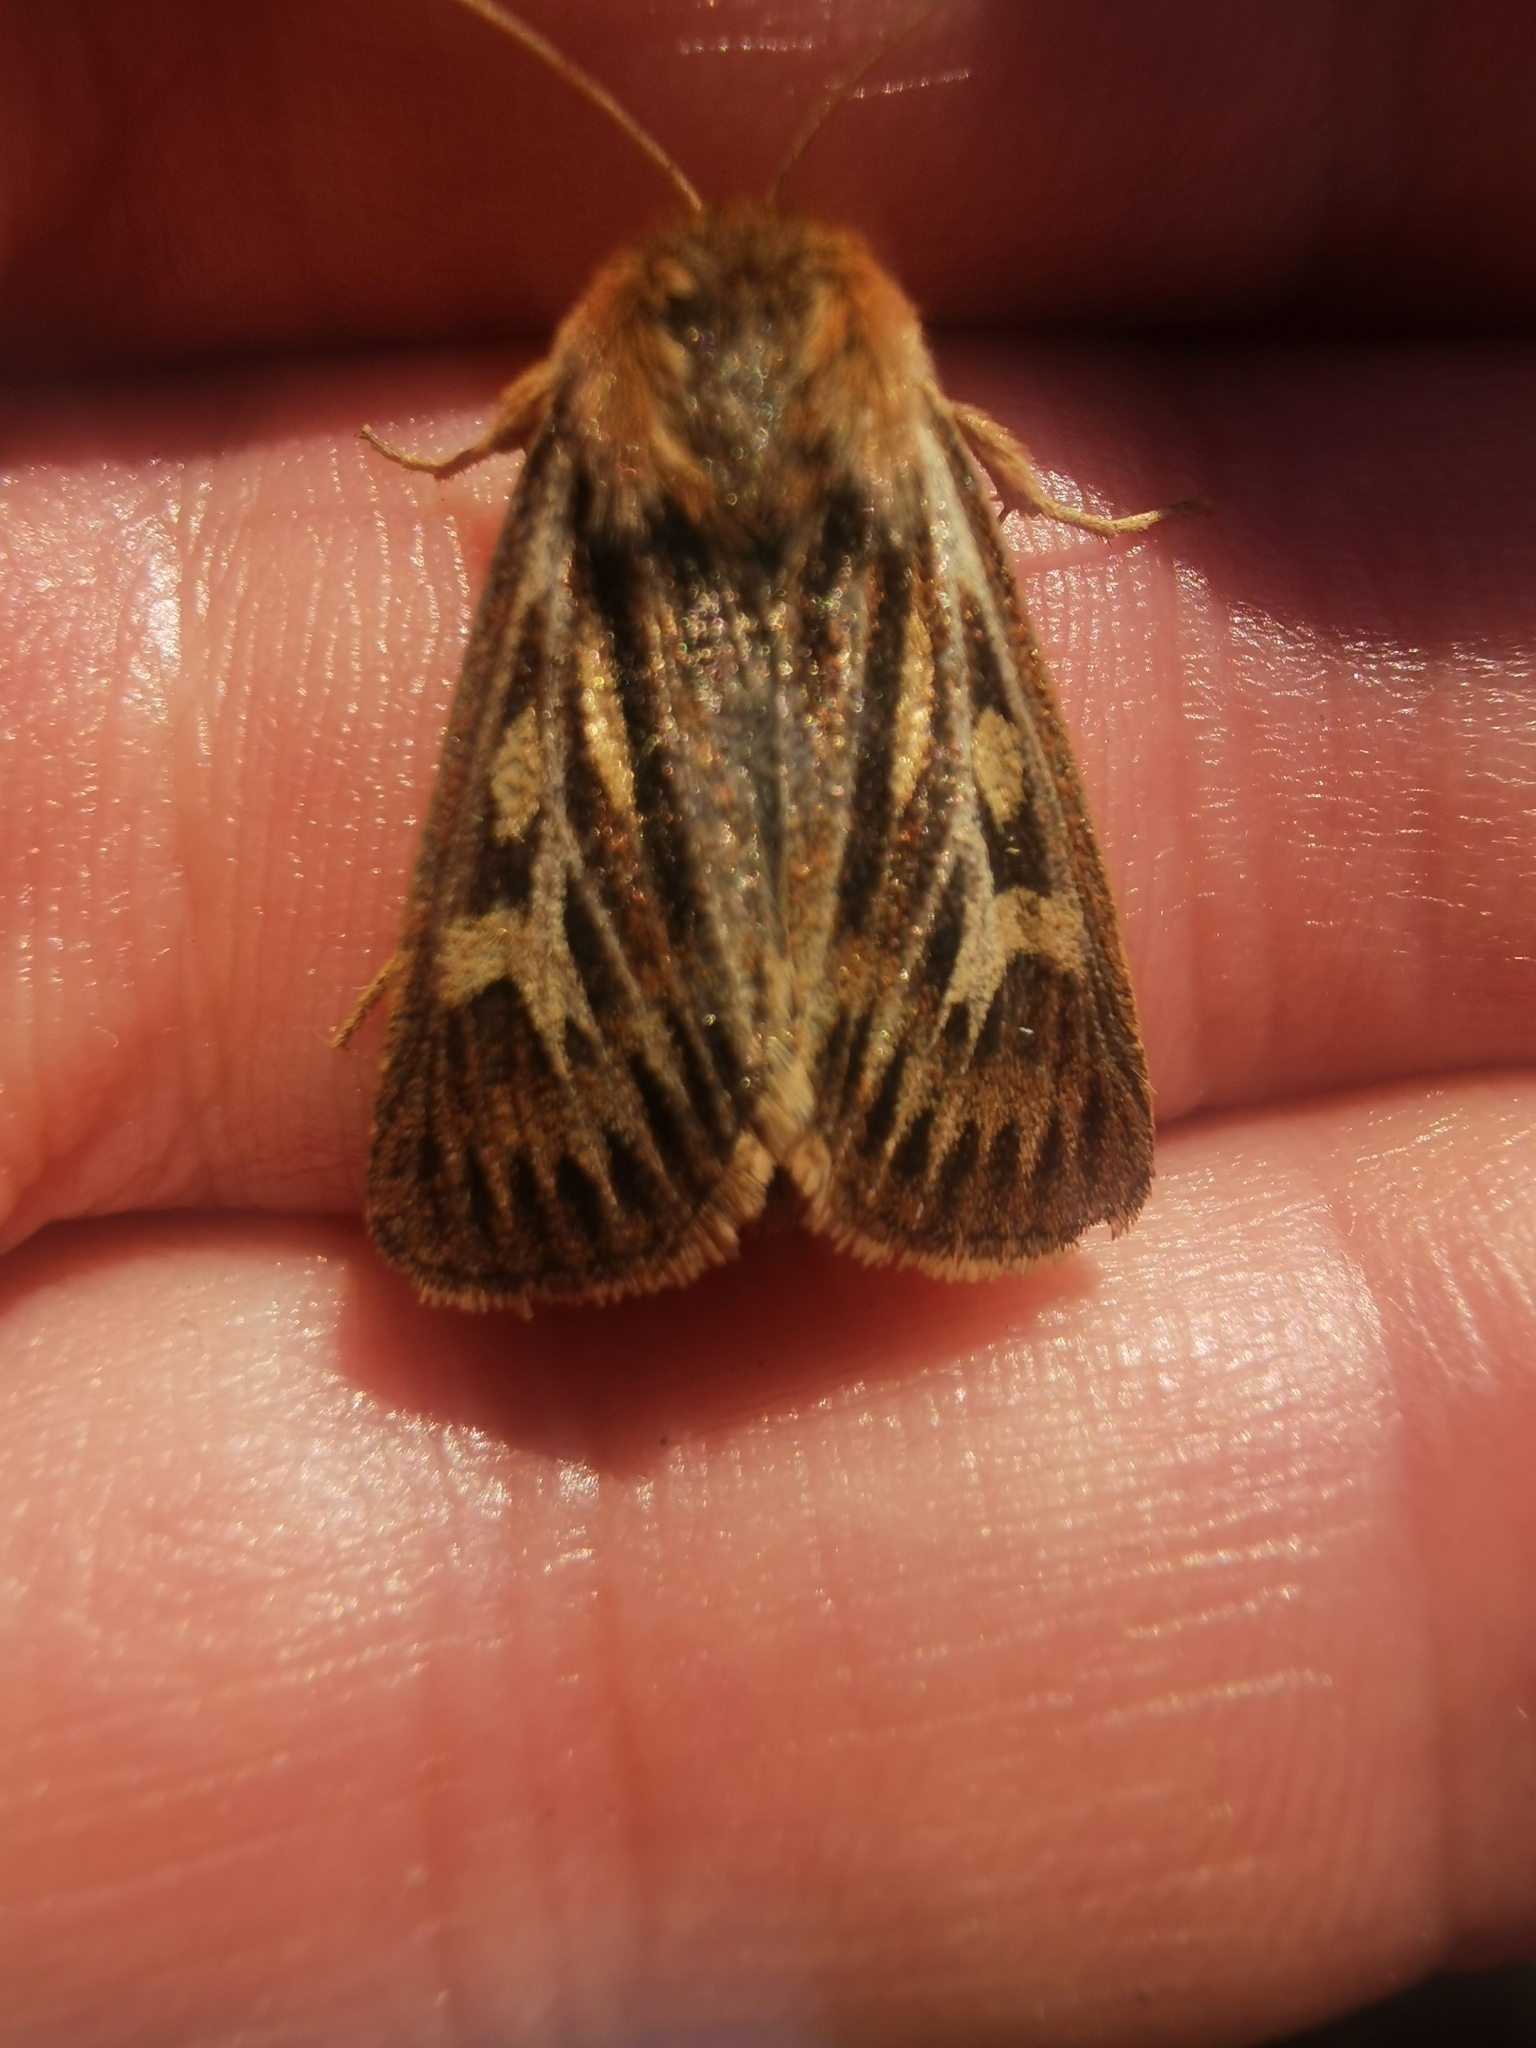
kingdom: Animalia
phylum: Arthropoda
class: Insecta
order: Lepidoptera
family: Noctuidae
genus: Cerapteryx
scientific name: Cerapteryx graminis
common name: Antler moth
